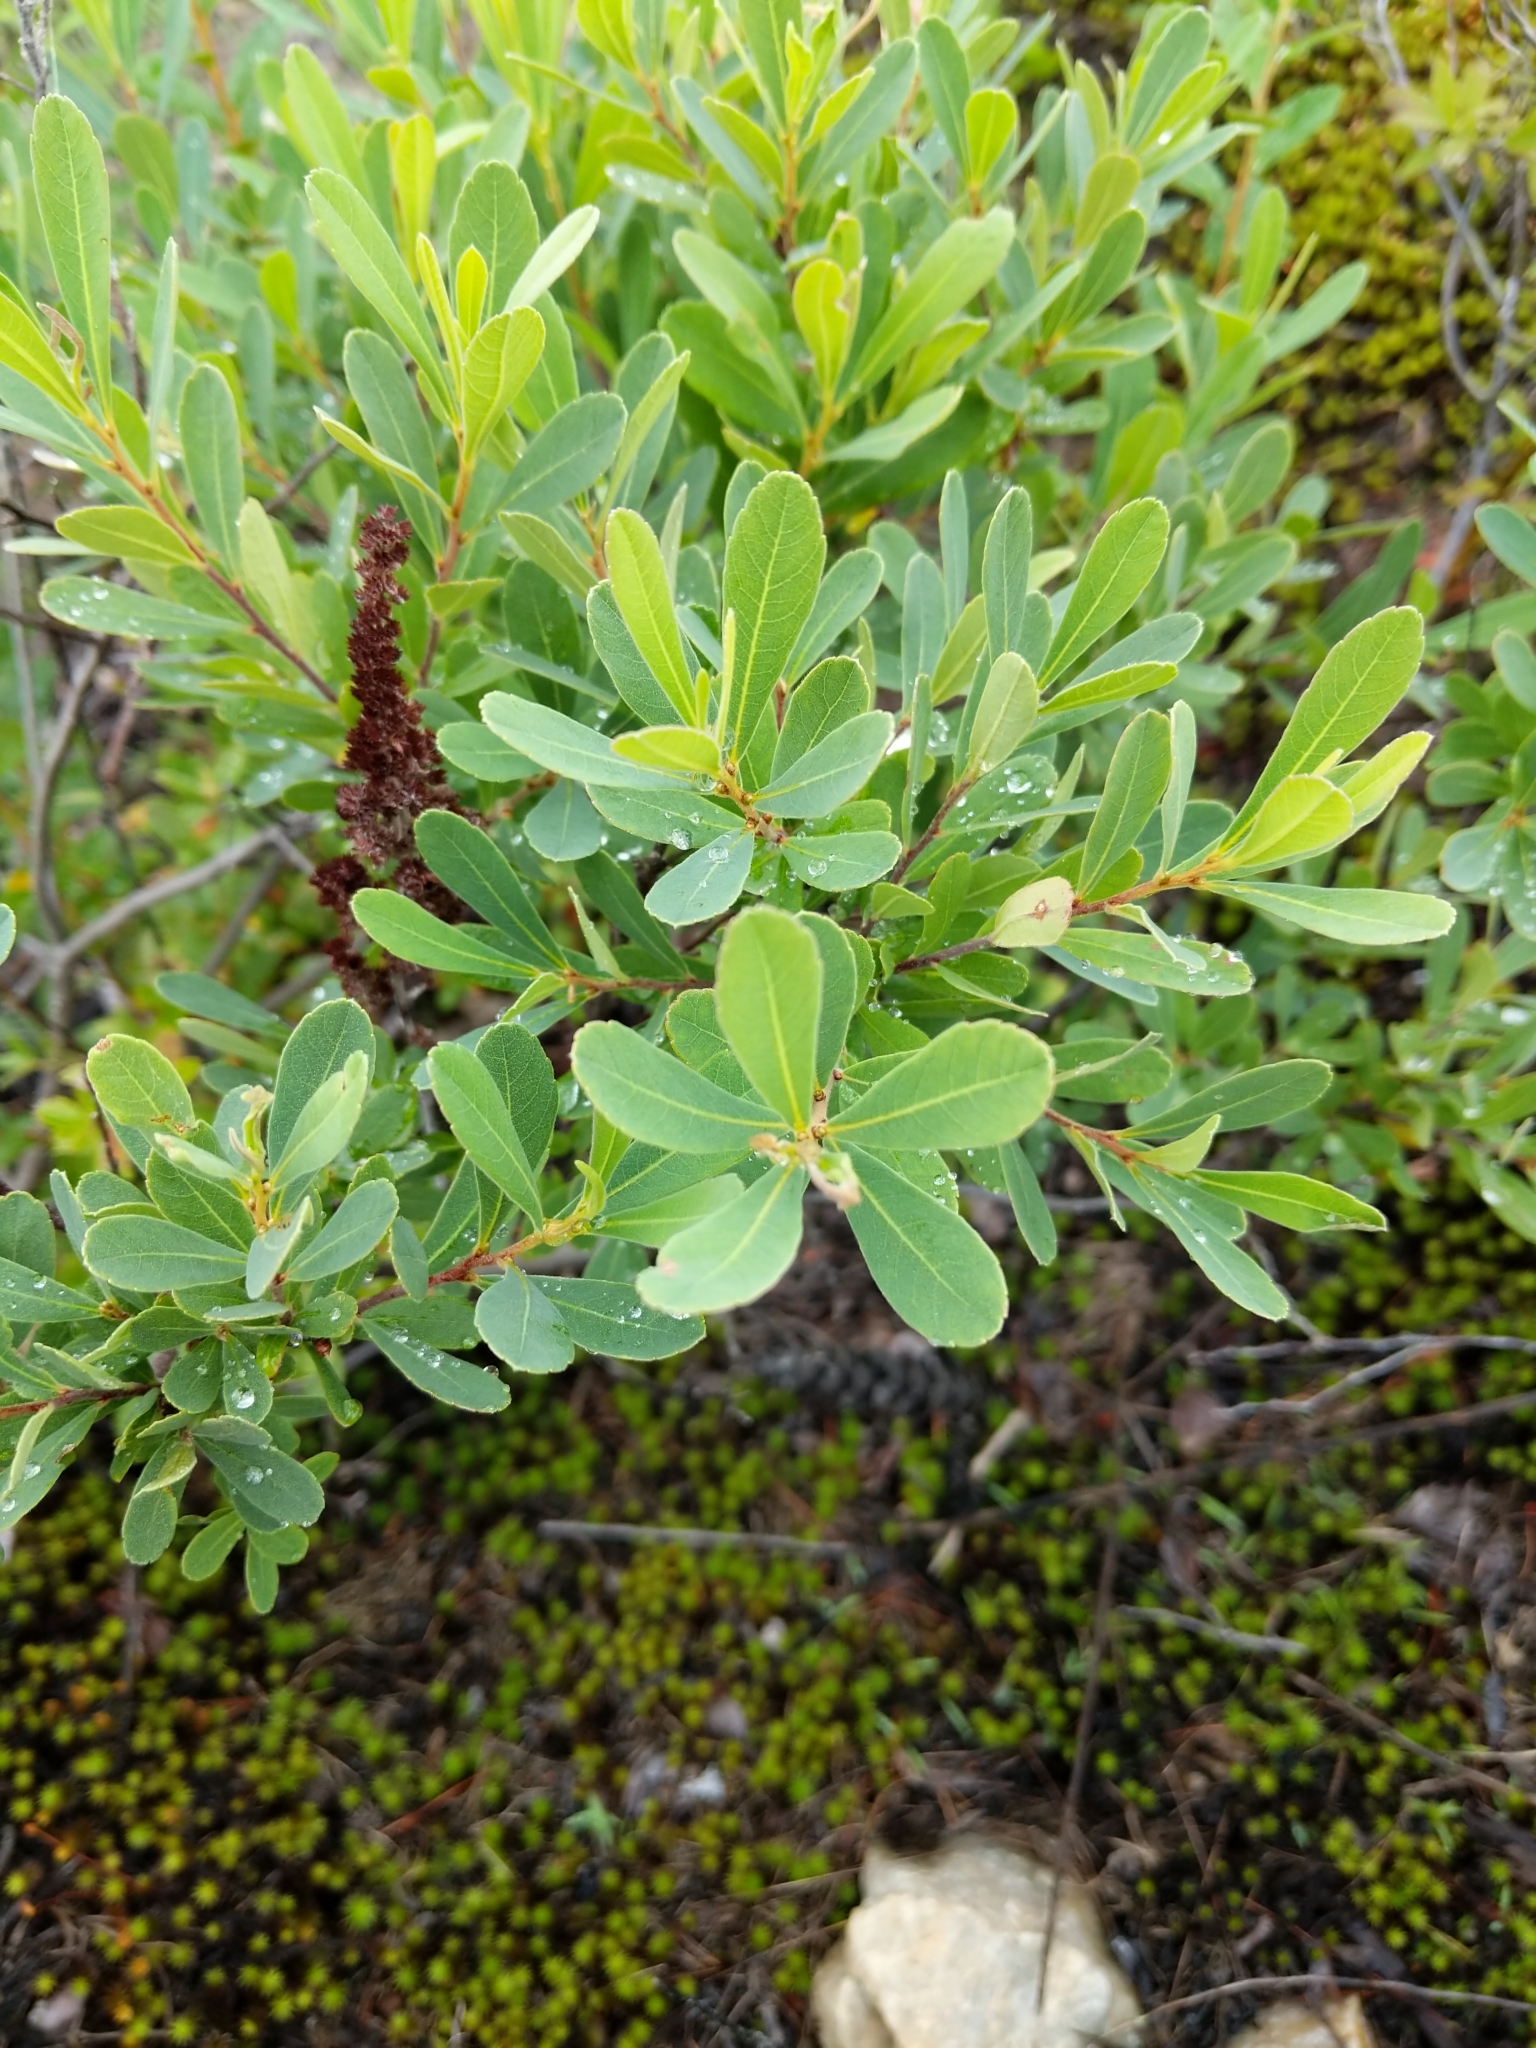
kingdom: Plantae
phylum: Tracheophyta
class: Magnoliopsida
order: Fagales
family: Myricaceae
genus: Myrica
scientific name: Myrica gale
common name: Sweet gale
